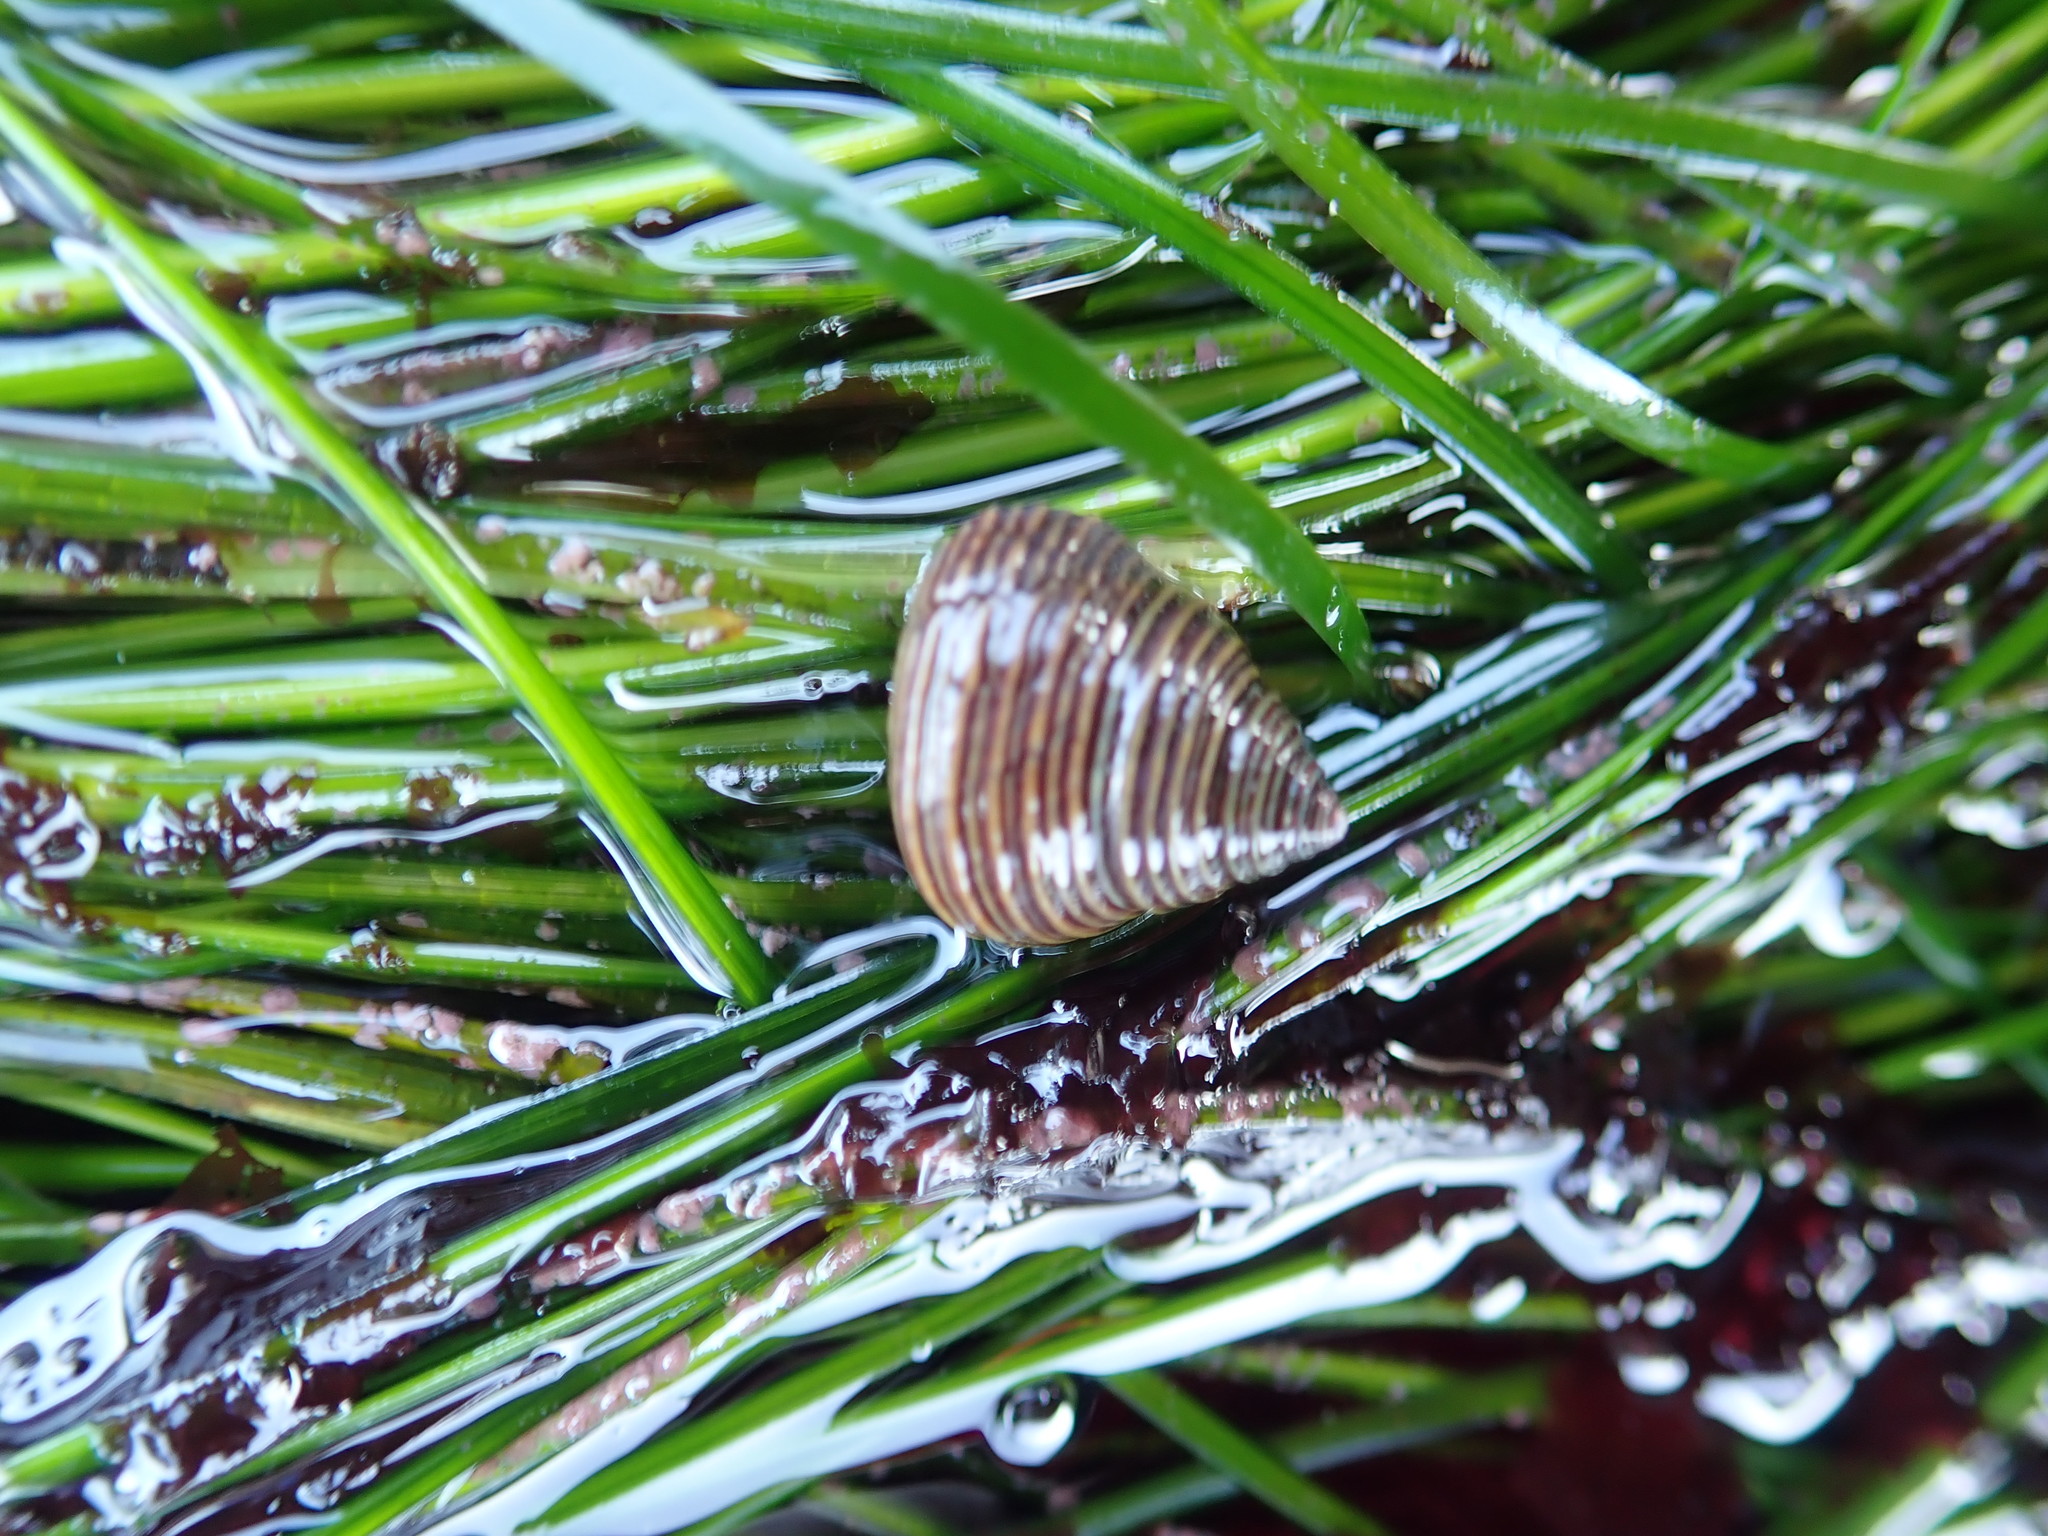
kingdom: Animalia
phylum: Mollusca
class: Gastropoda
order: Trochida
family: Calliostomatidae
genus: Calliostoma
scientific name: Calliostoma ligatum
